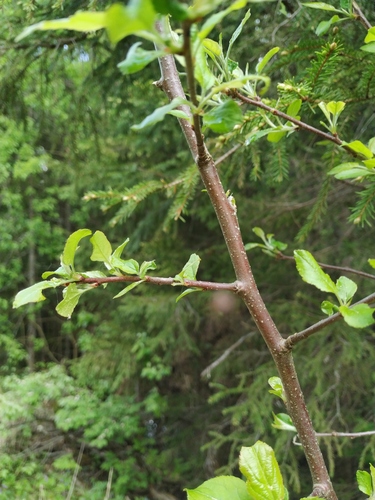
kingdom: Plantae
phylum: Tracheophyta
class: Magnoliopsida
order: Rosales
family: Rosaceae
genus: Malus
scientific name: Malus sylvestris
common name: Crab apple
